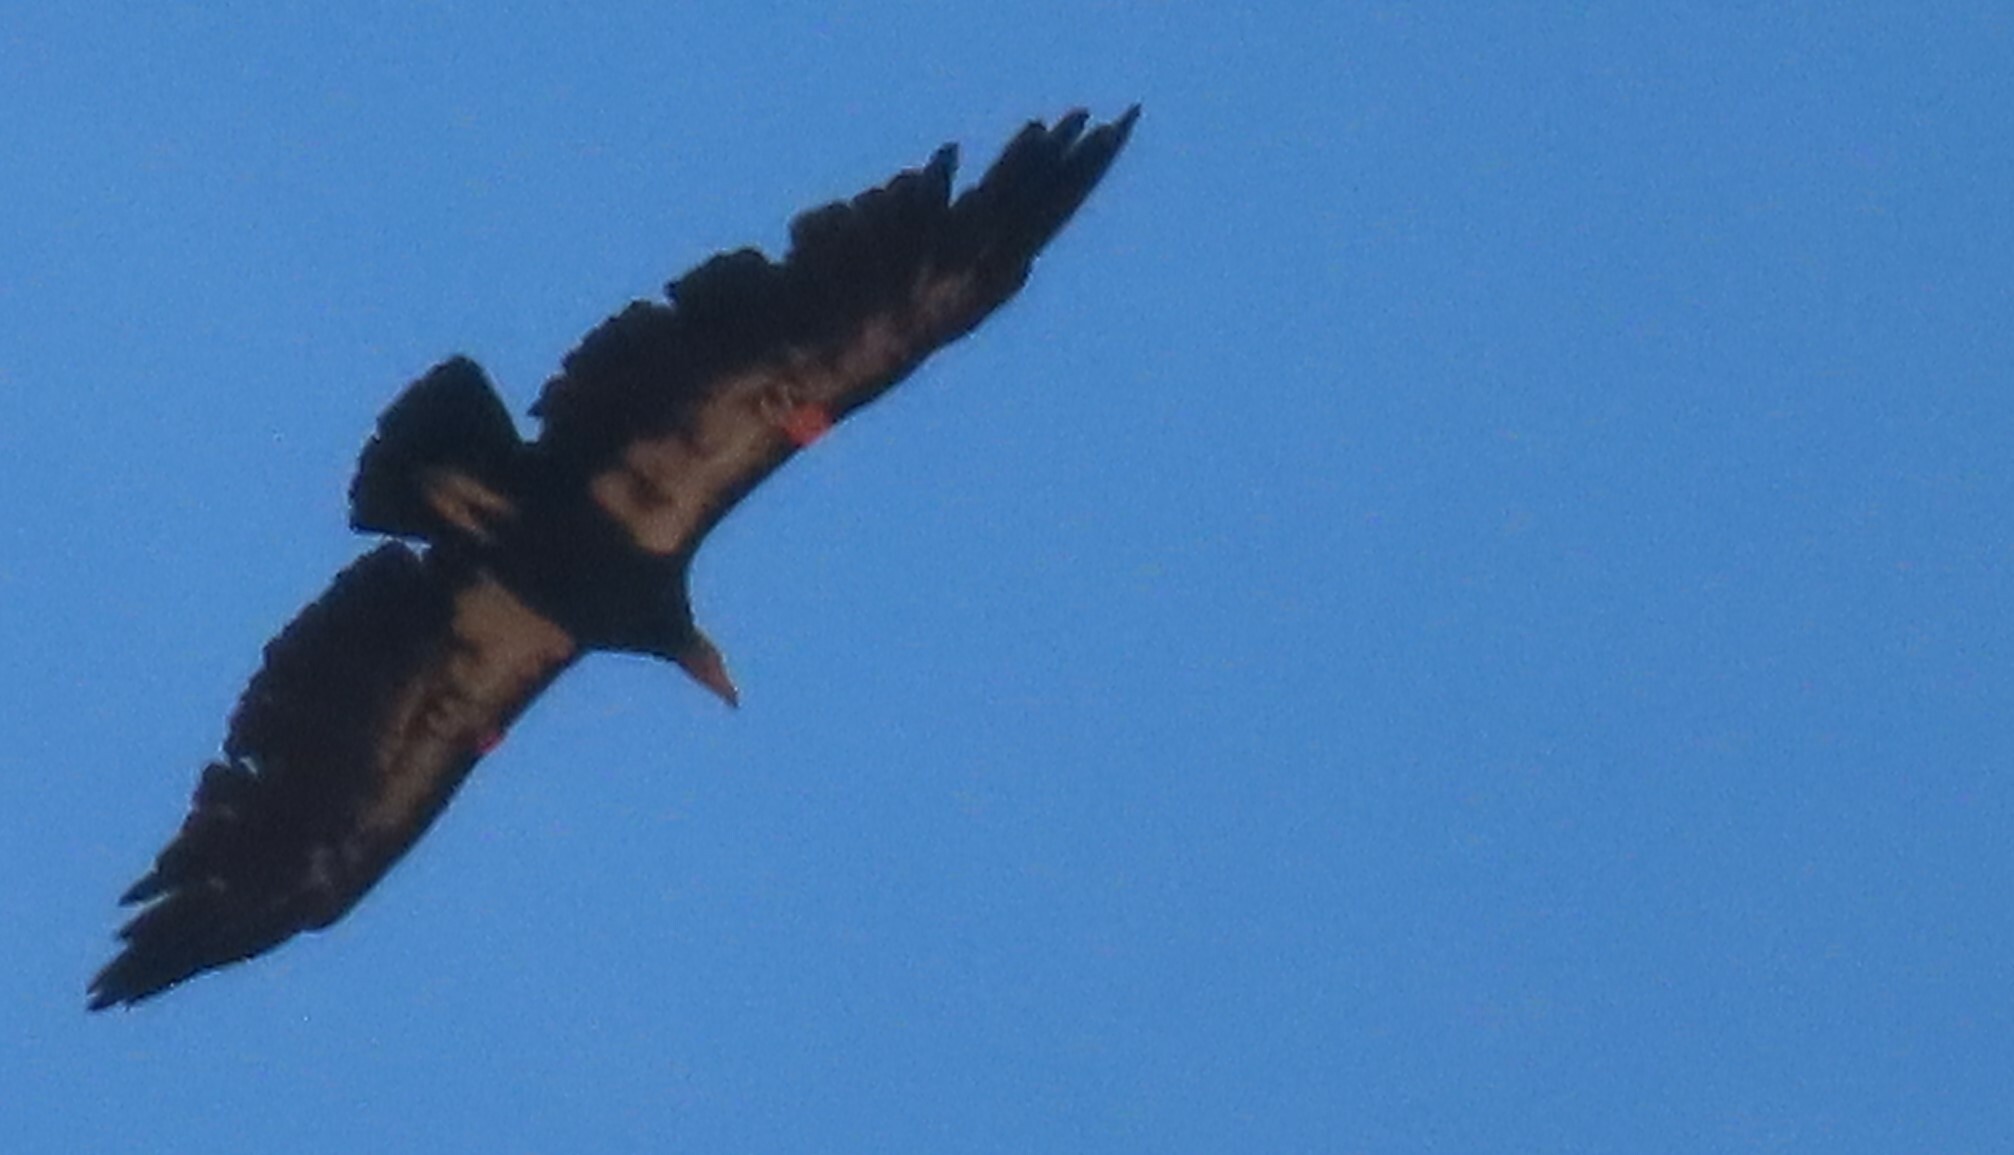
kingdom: Animalia
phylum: Chordata
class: Aves
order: Accipitriformes
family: Cathartidae
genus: Gymnogyps
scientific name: Gymnogyps californianus
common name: California condor
